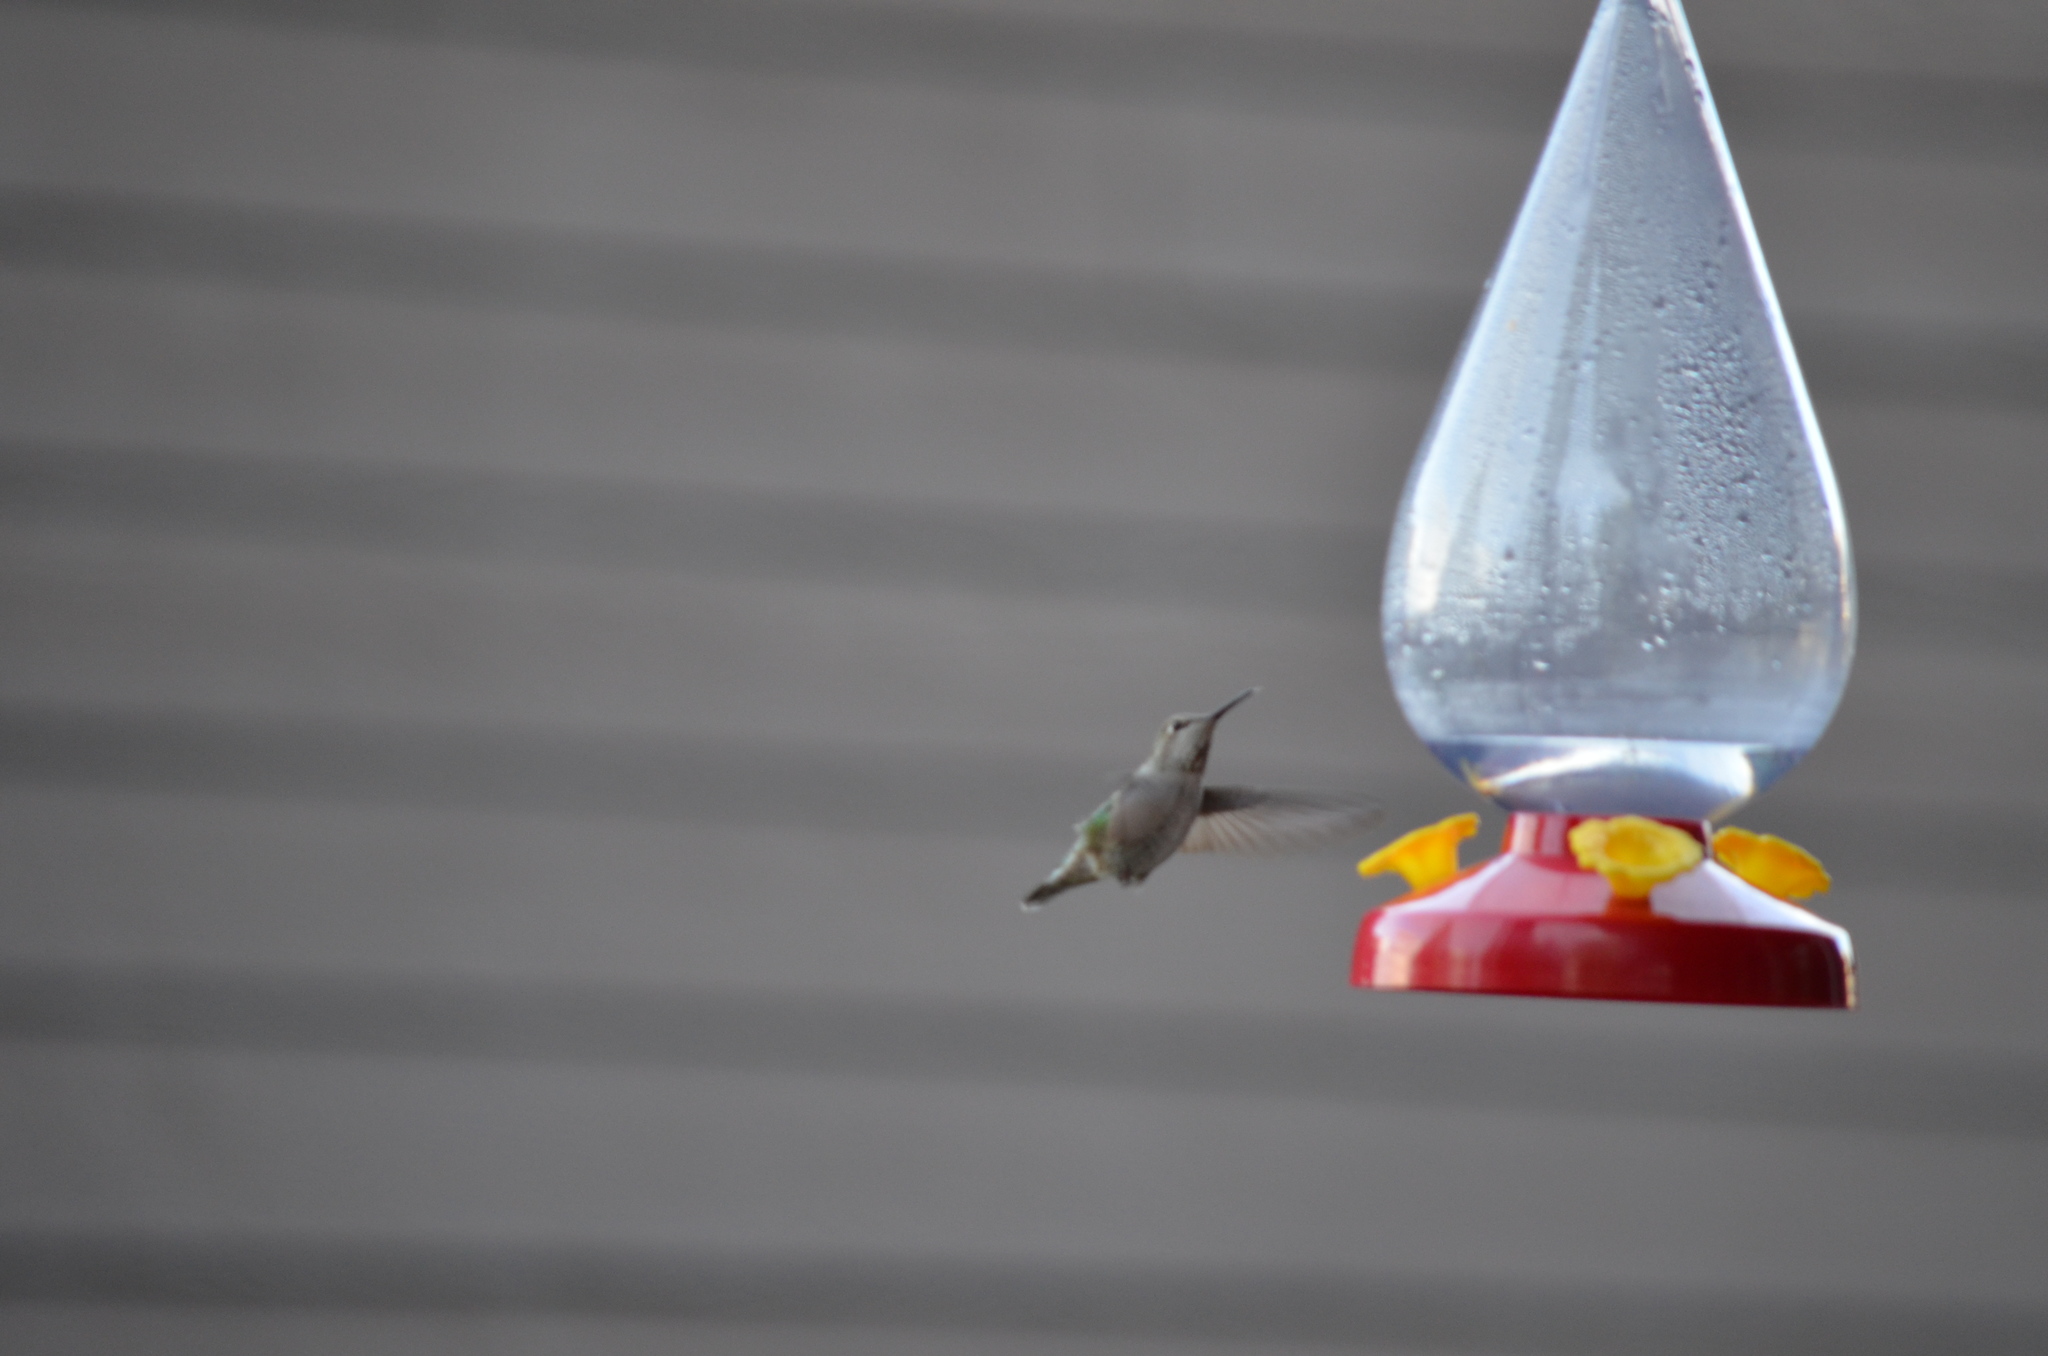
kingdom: Animalia
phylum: Chordata
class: Aves
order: Apodiformes
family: Trochilidae
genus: Calypte
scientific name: Calypte anna
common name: Anna's hummingbird
